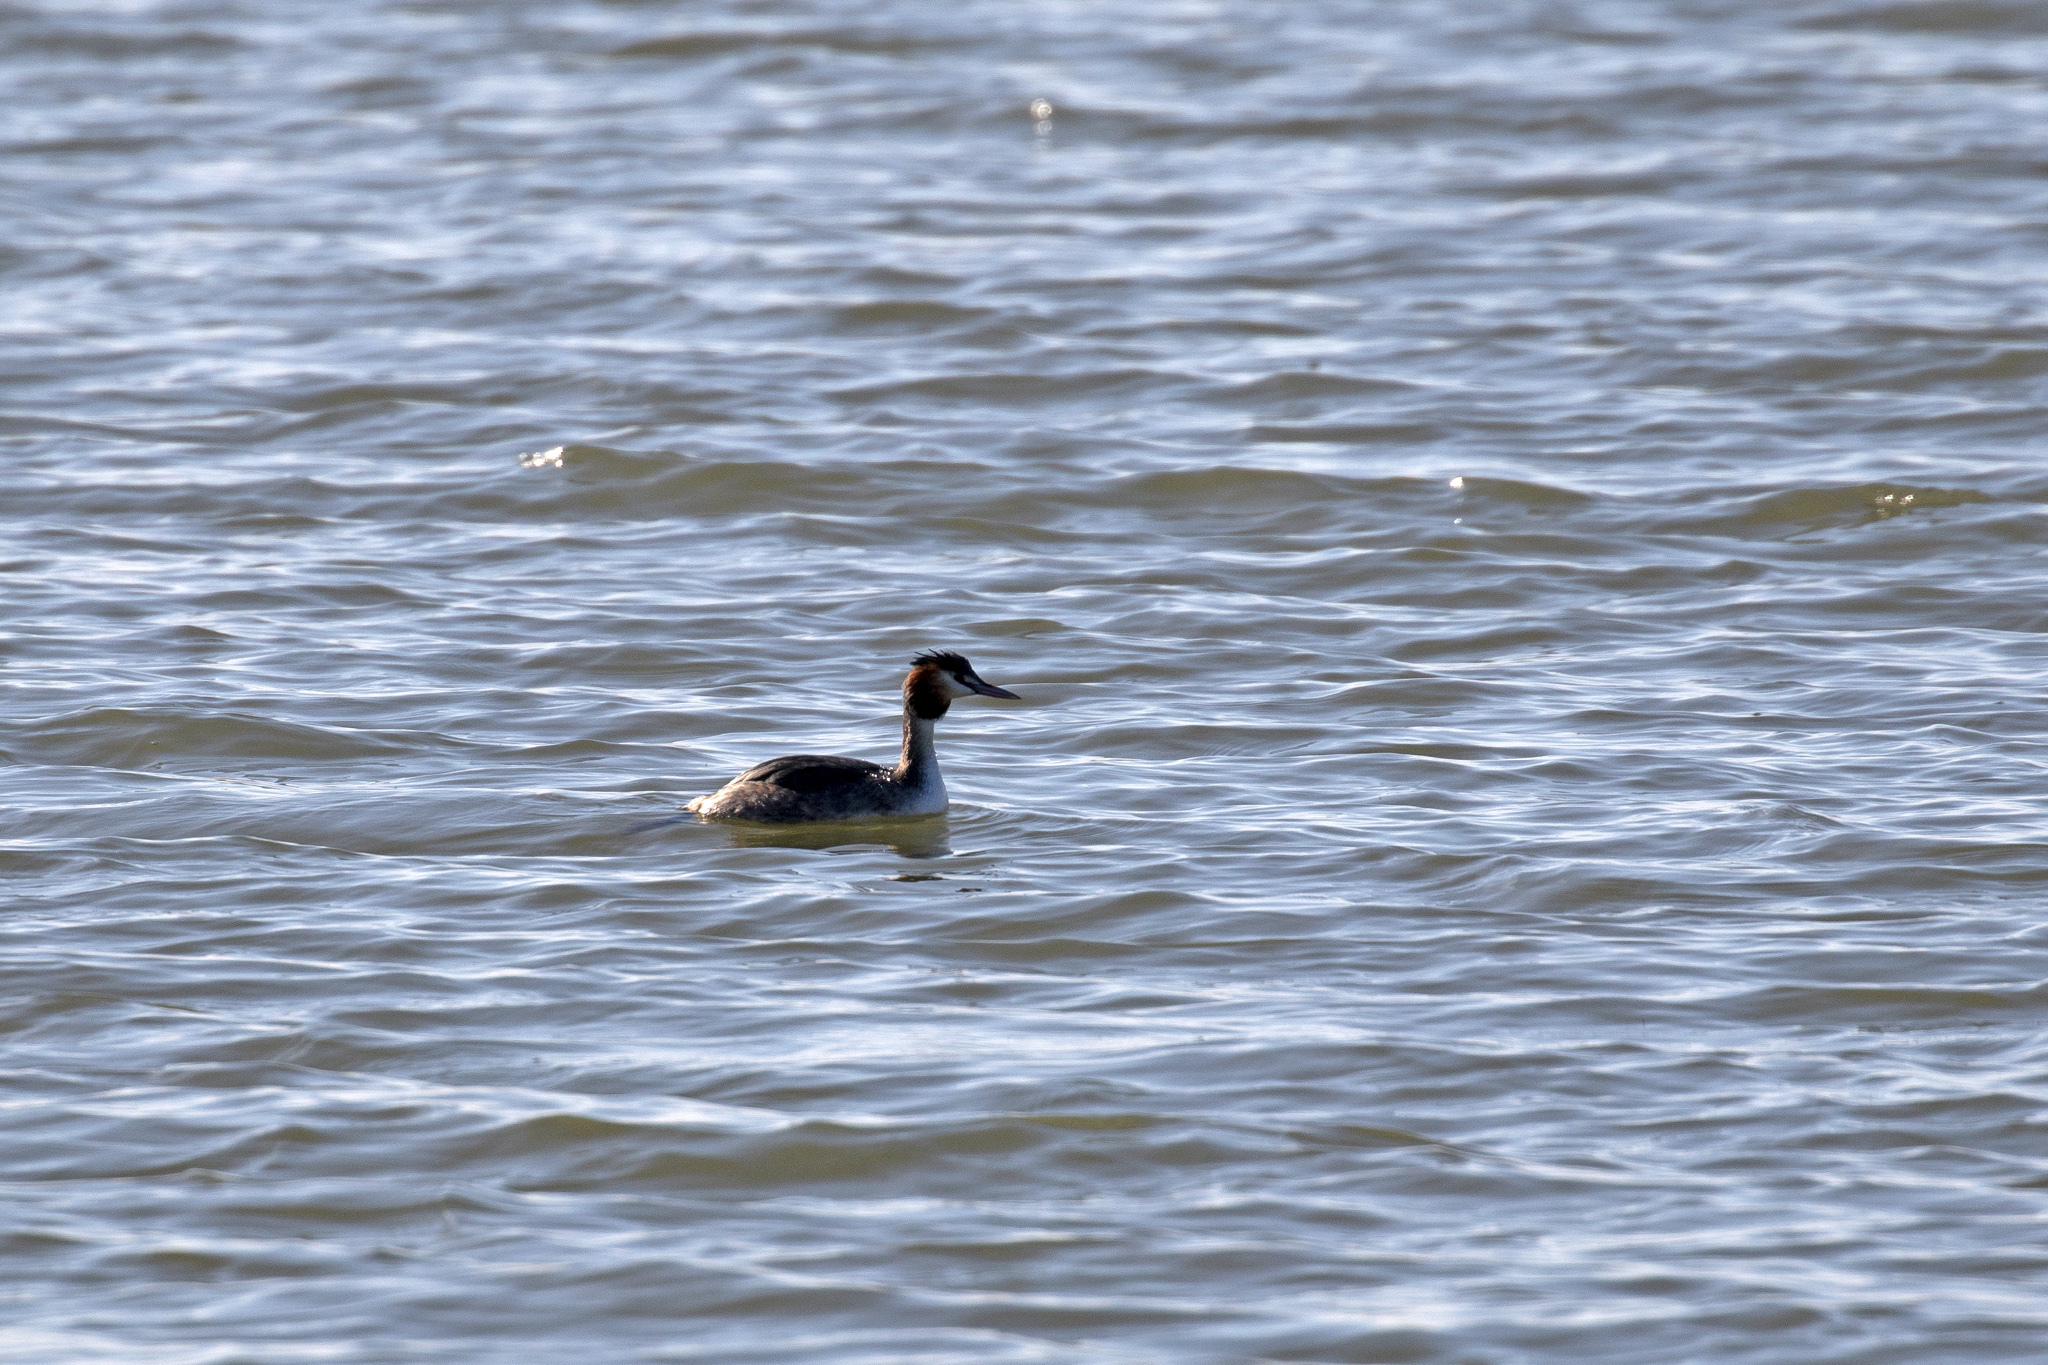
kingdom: Animalia
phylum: Chordata
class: Aves
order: Podicipediformes
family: Podicipedidae
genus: Podiceps
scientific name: Podiceps cristatus
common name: Great crested grebe
